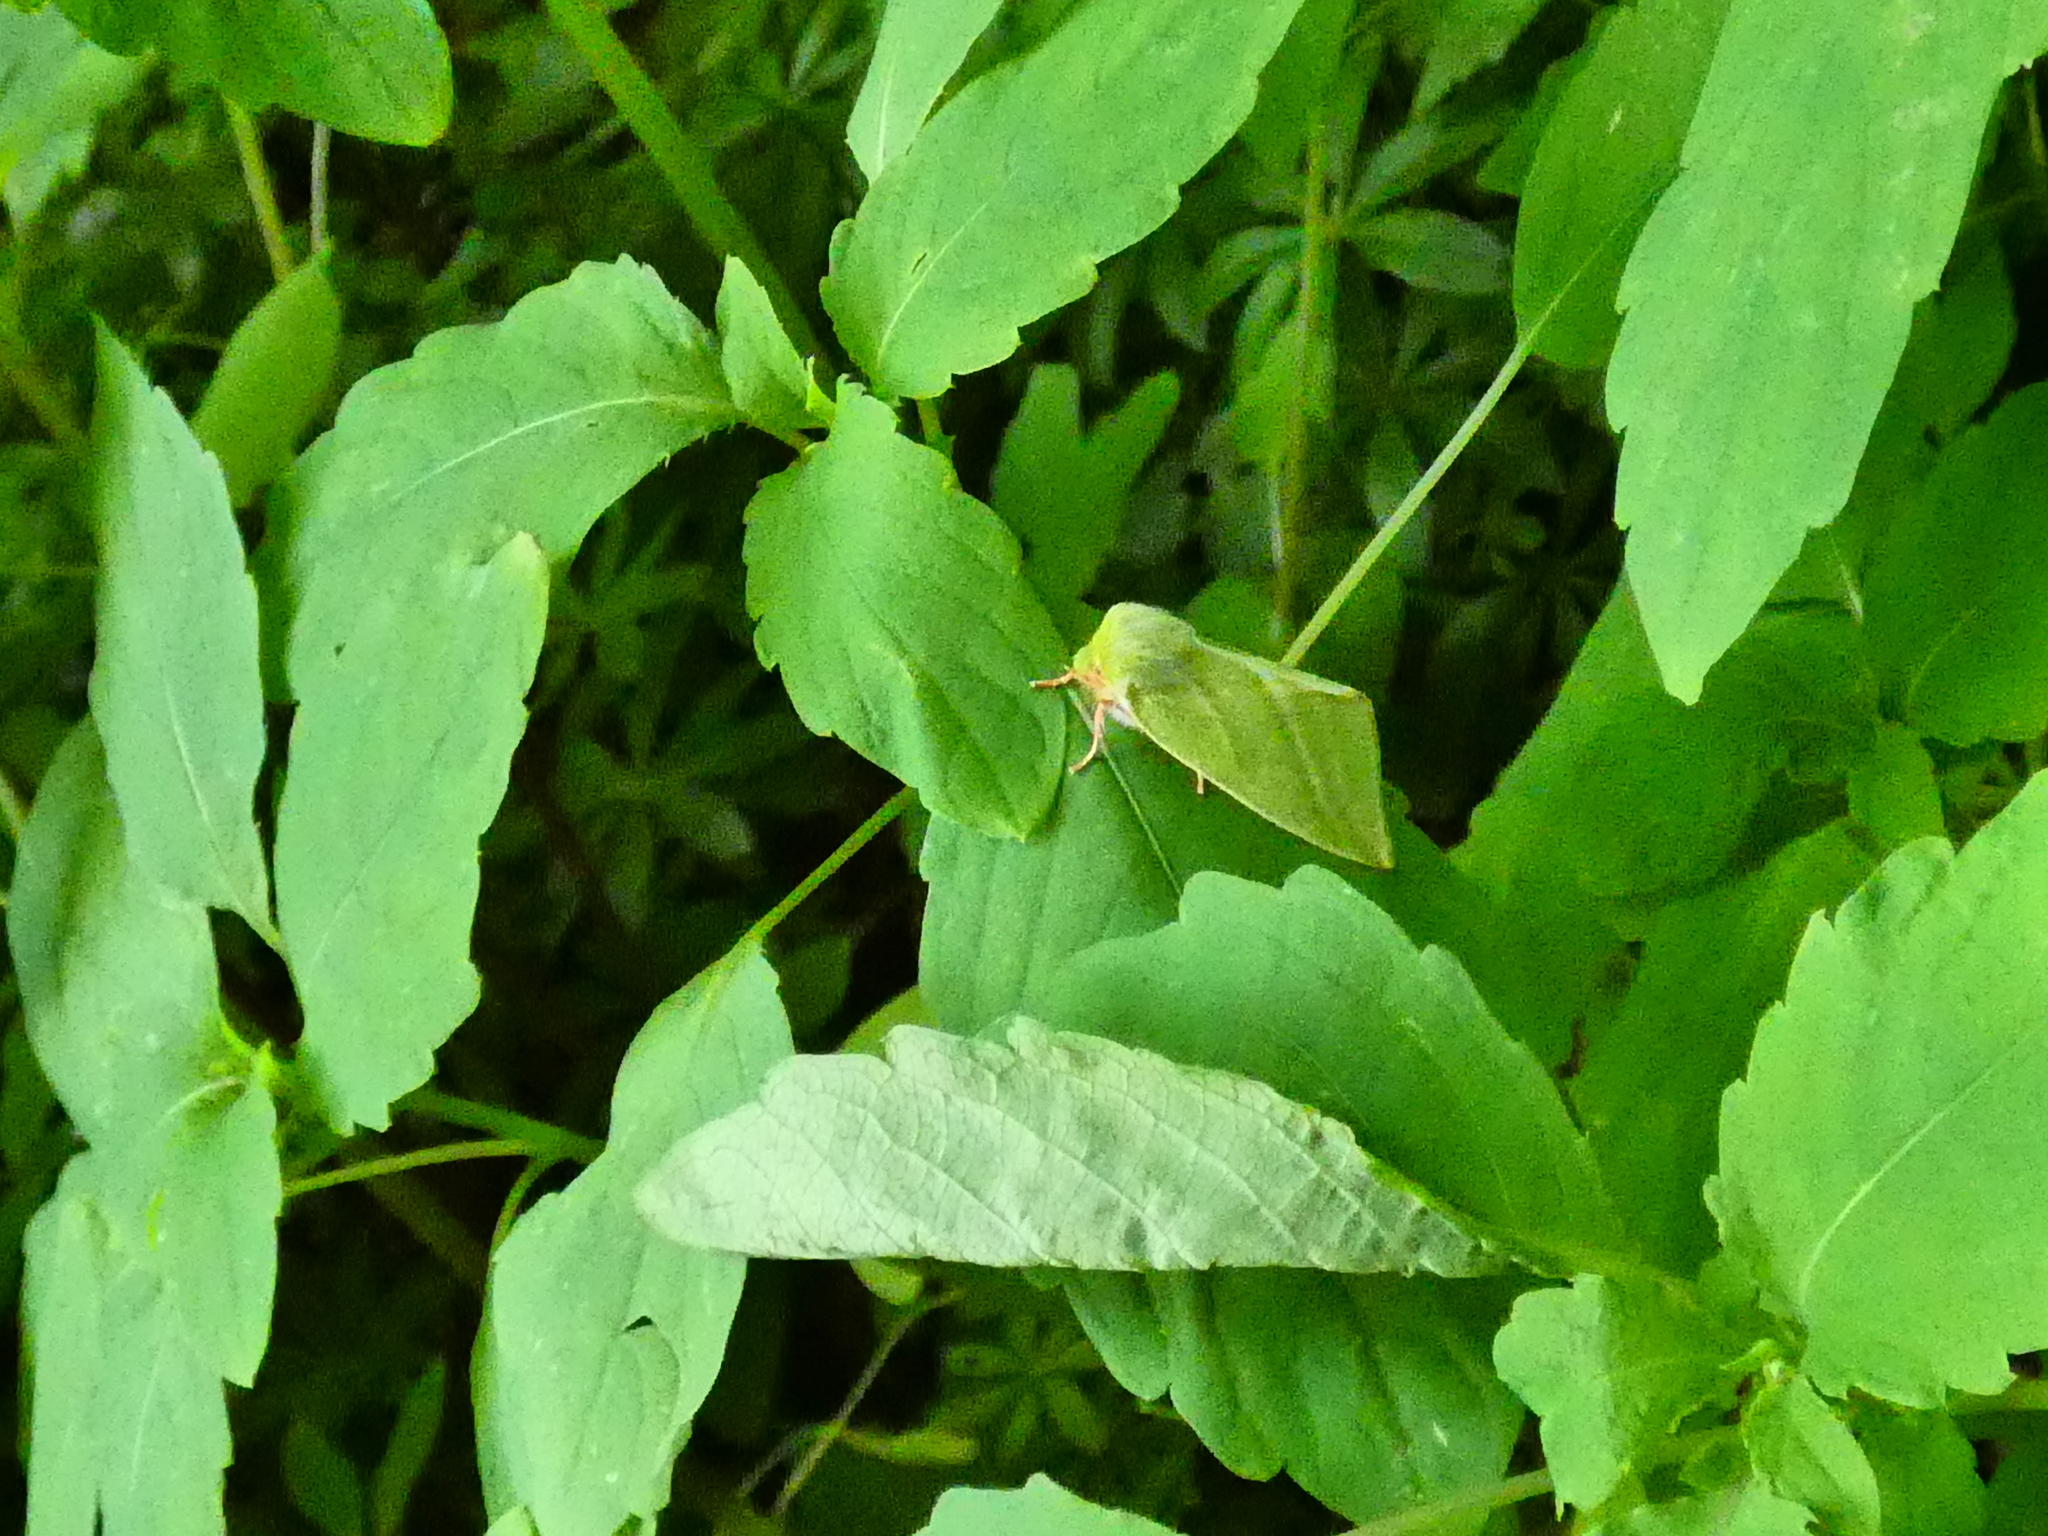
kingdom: Animalia
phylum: Arthropoda
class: Insecta
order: Lepidoptera
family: Nolidae
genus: Pseudoips
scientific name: Pseudoips prasinana
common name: Green silver-lines
